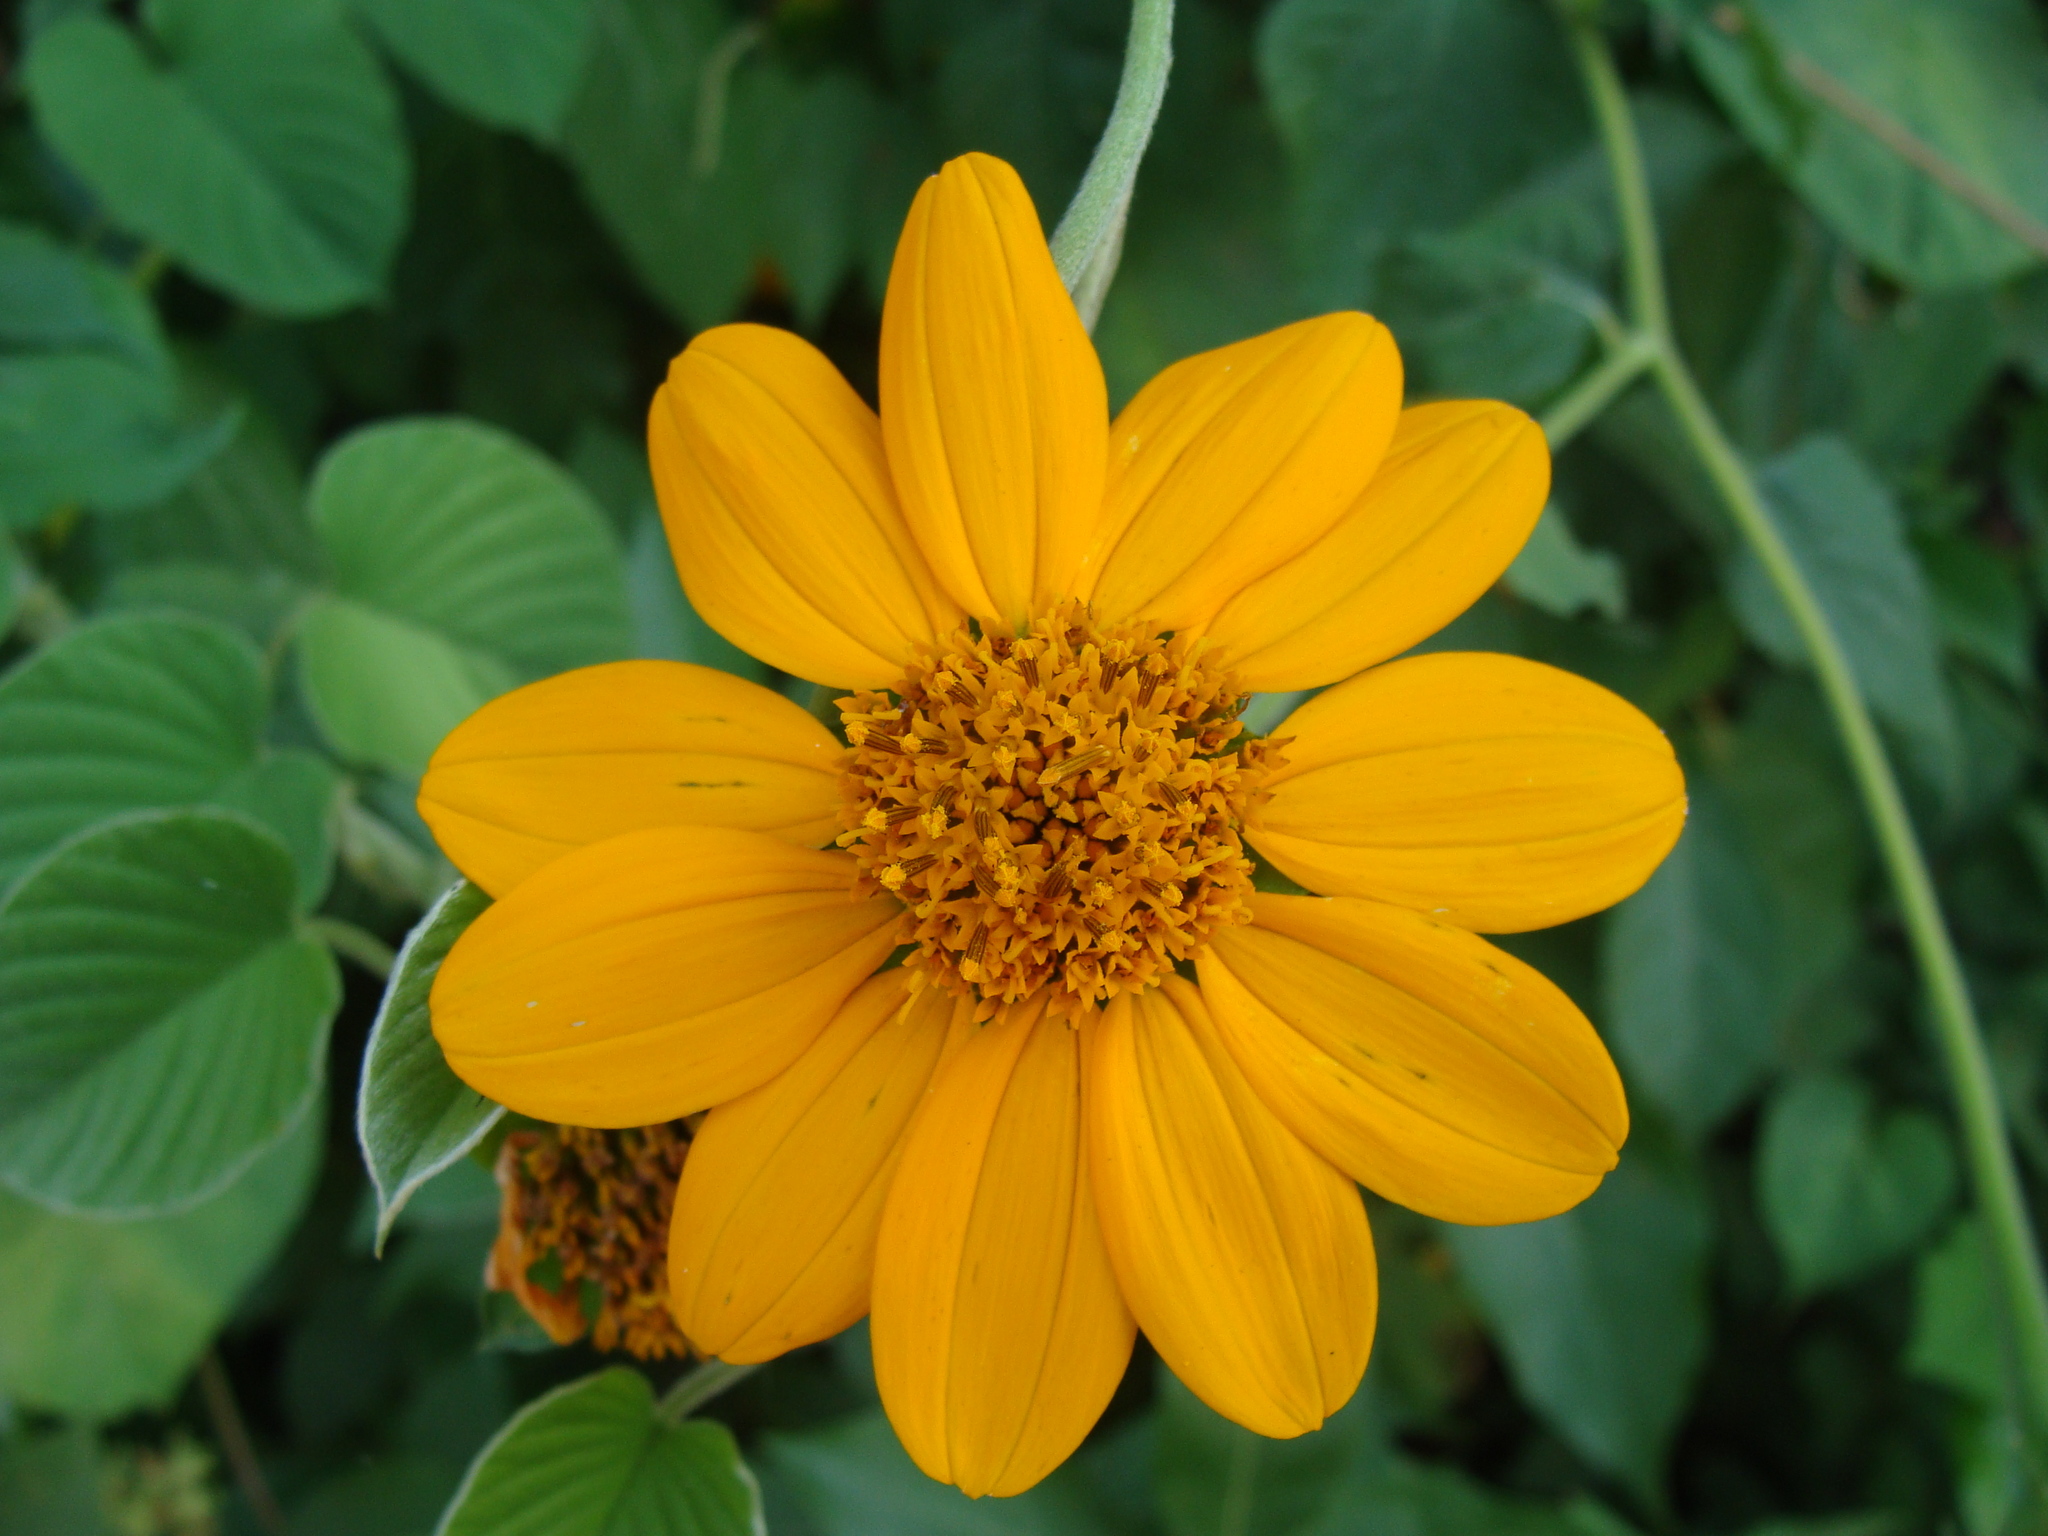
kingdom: Plantae
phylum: Tracheophyta
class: Magnoliopsida
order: Asterales
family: Asteraceae
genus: Tithonia
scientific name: Tithonia rotundifolia
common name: Sunflower
